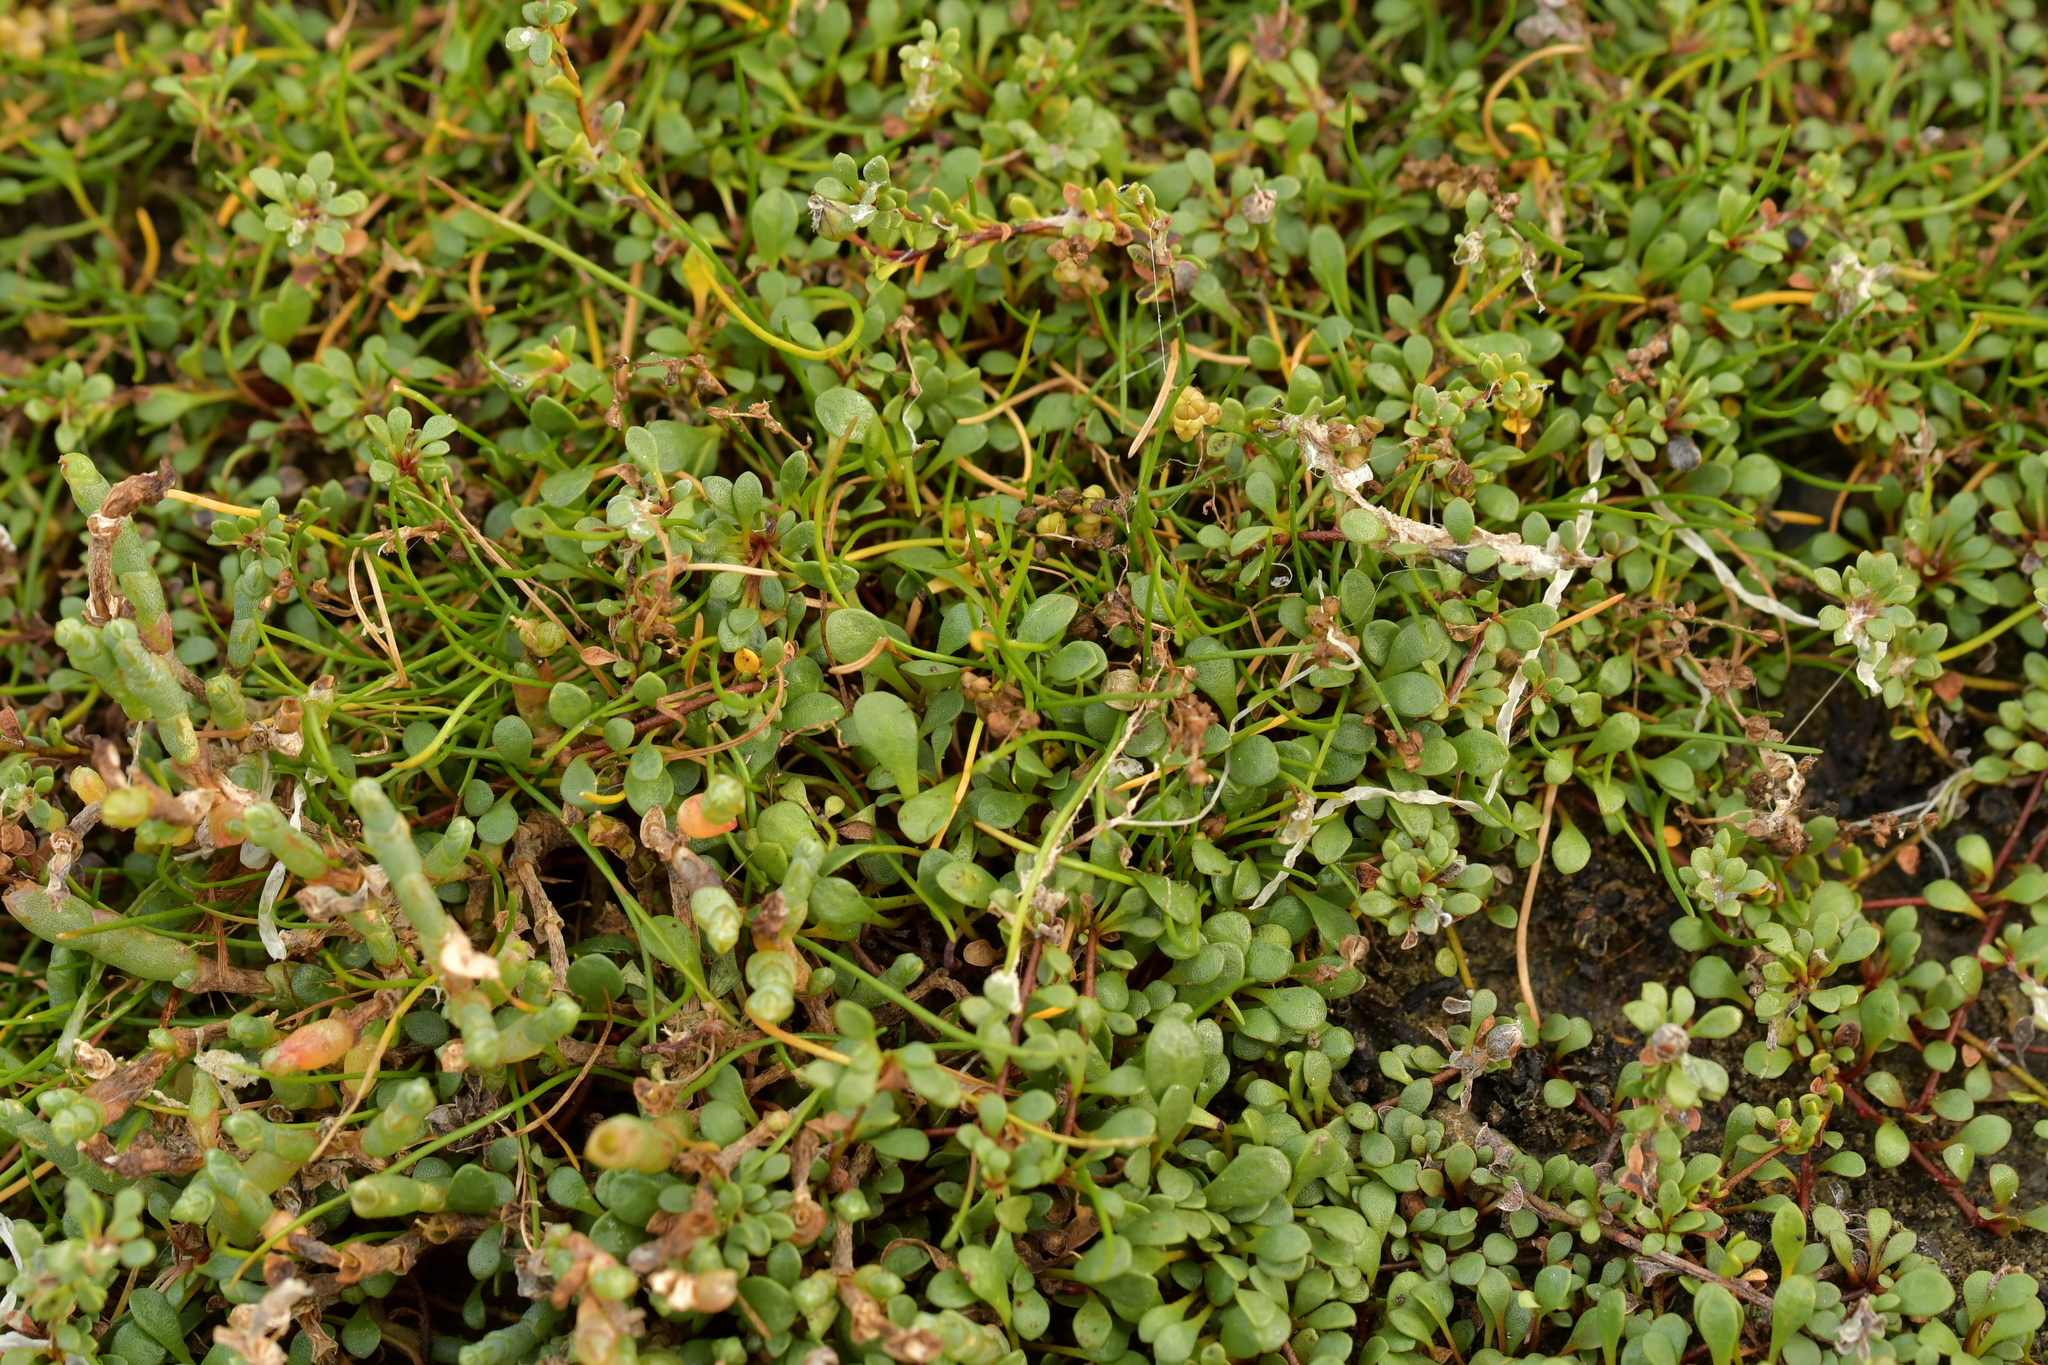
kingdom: Plantae
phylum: Tracheophyta
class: Magnoliopsida
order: Ericales
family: Primulaceae
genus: Samolus
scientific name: Samolus repens
